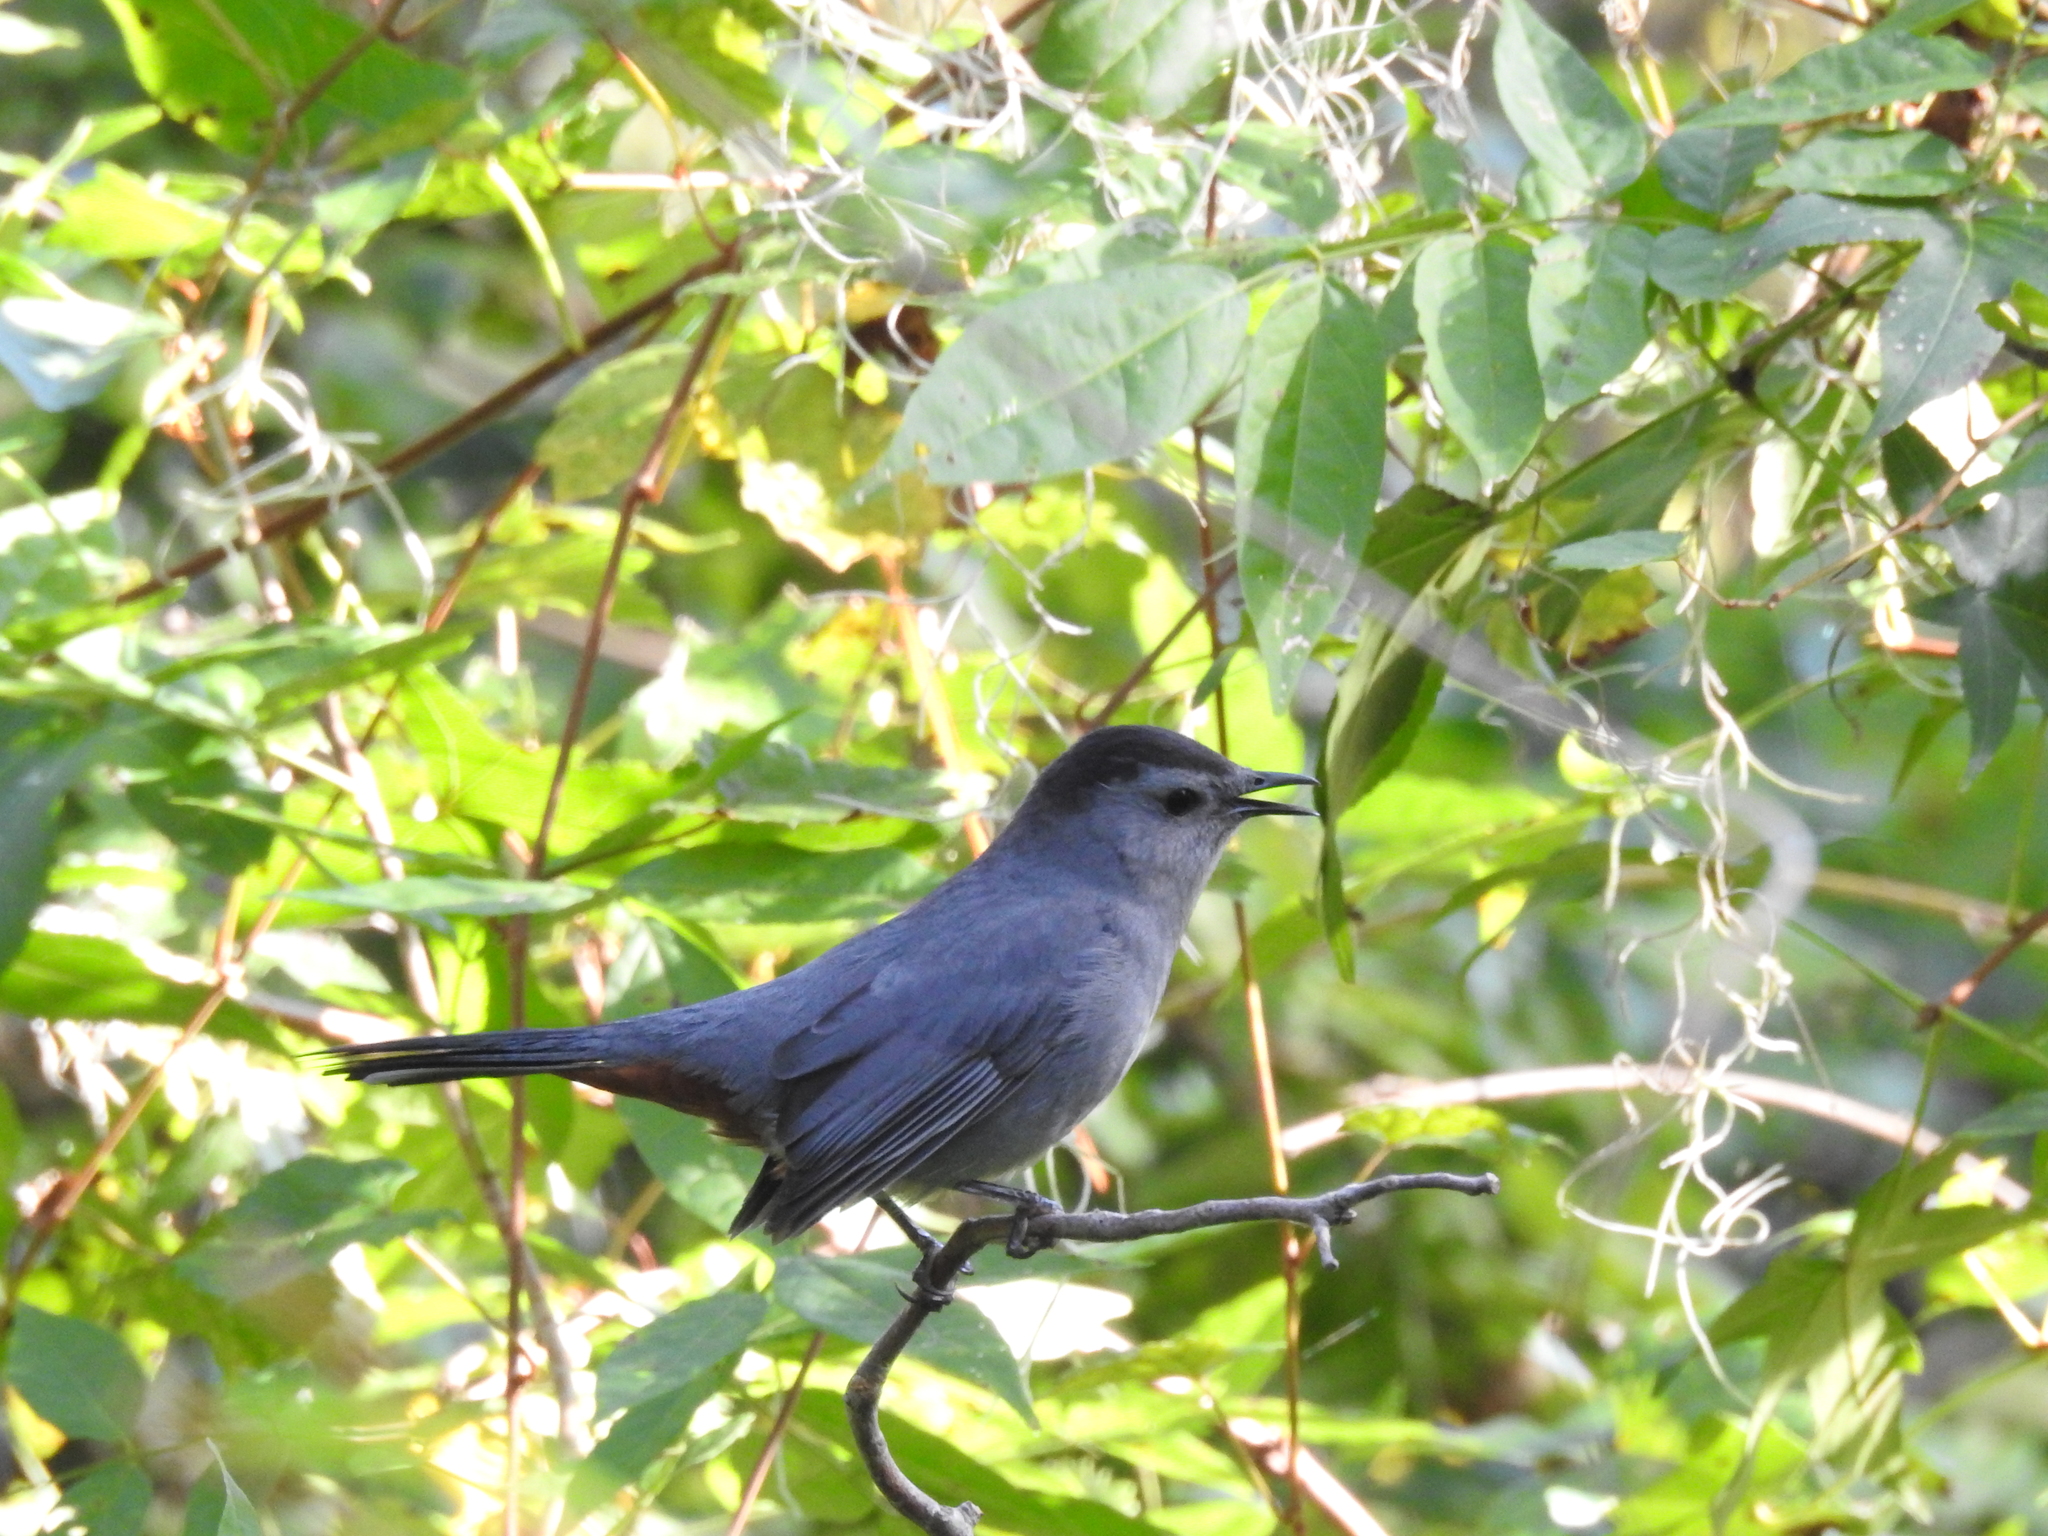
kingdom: Animalia
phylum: Chordata
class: Aves
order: Passeriformes
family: Mimidae
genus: Dumetella
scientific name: Dumetella carolinensis
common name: Gray catbird
